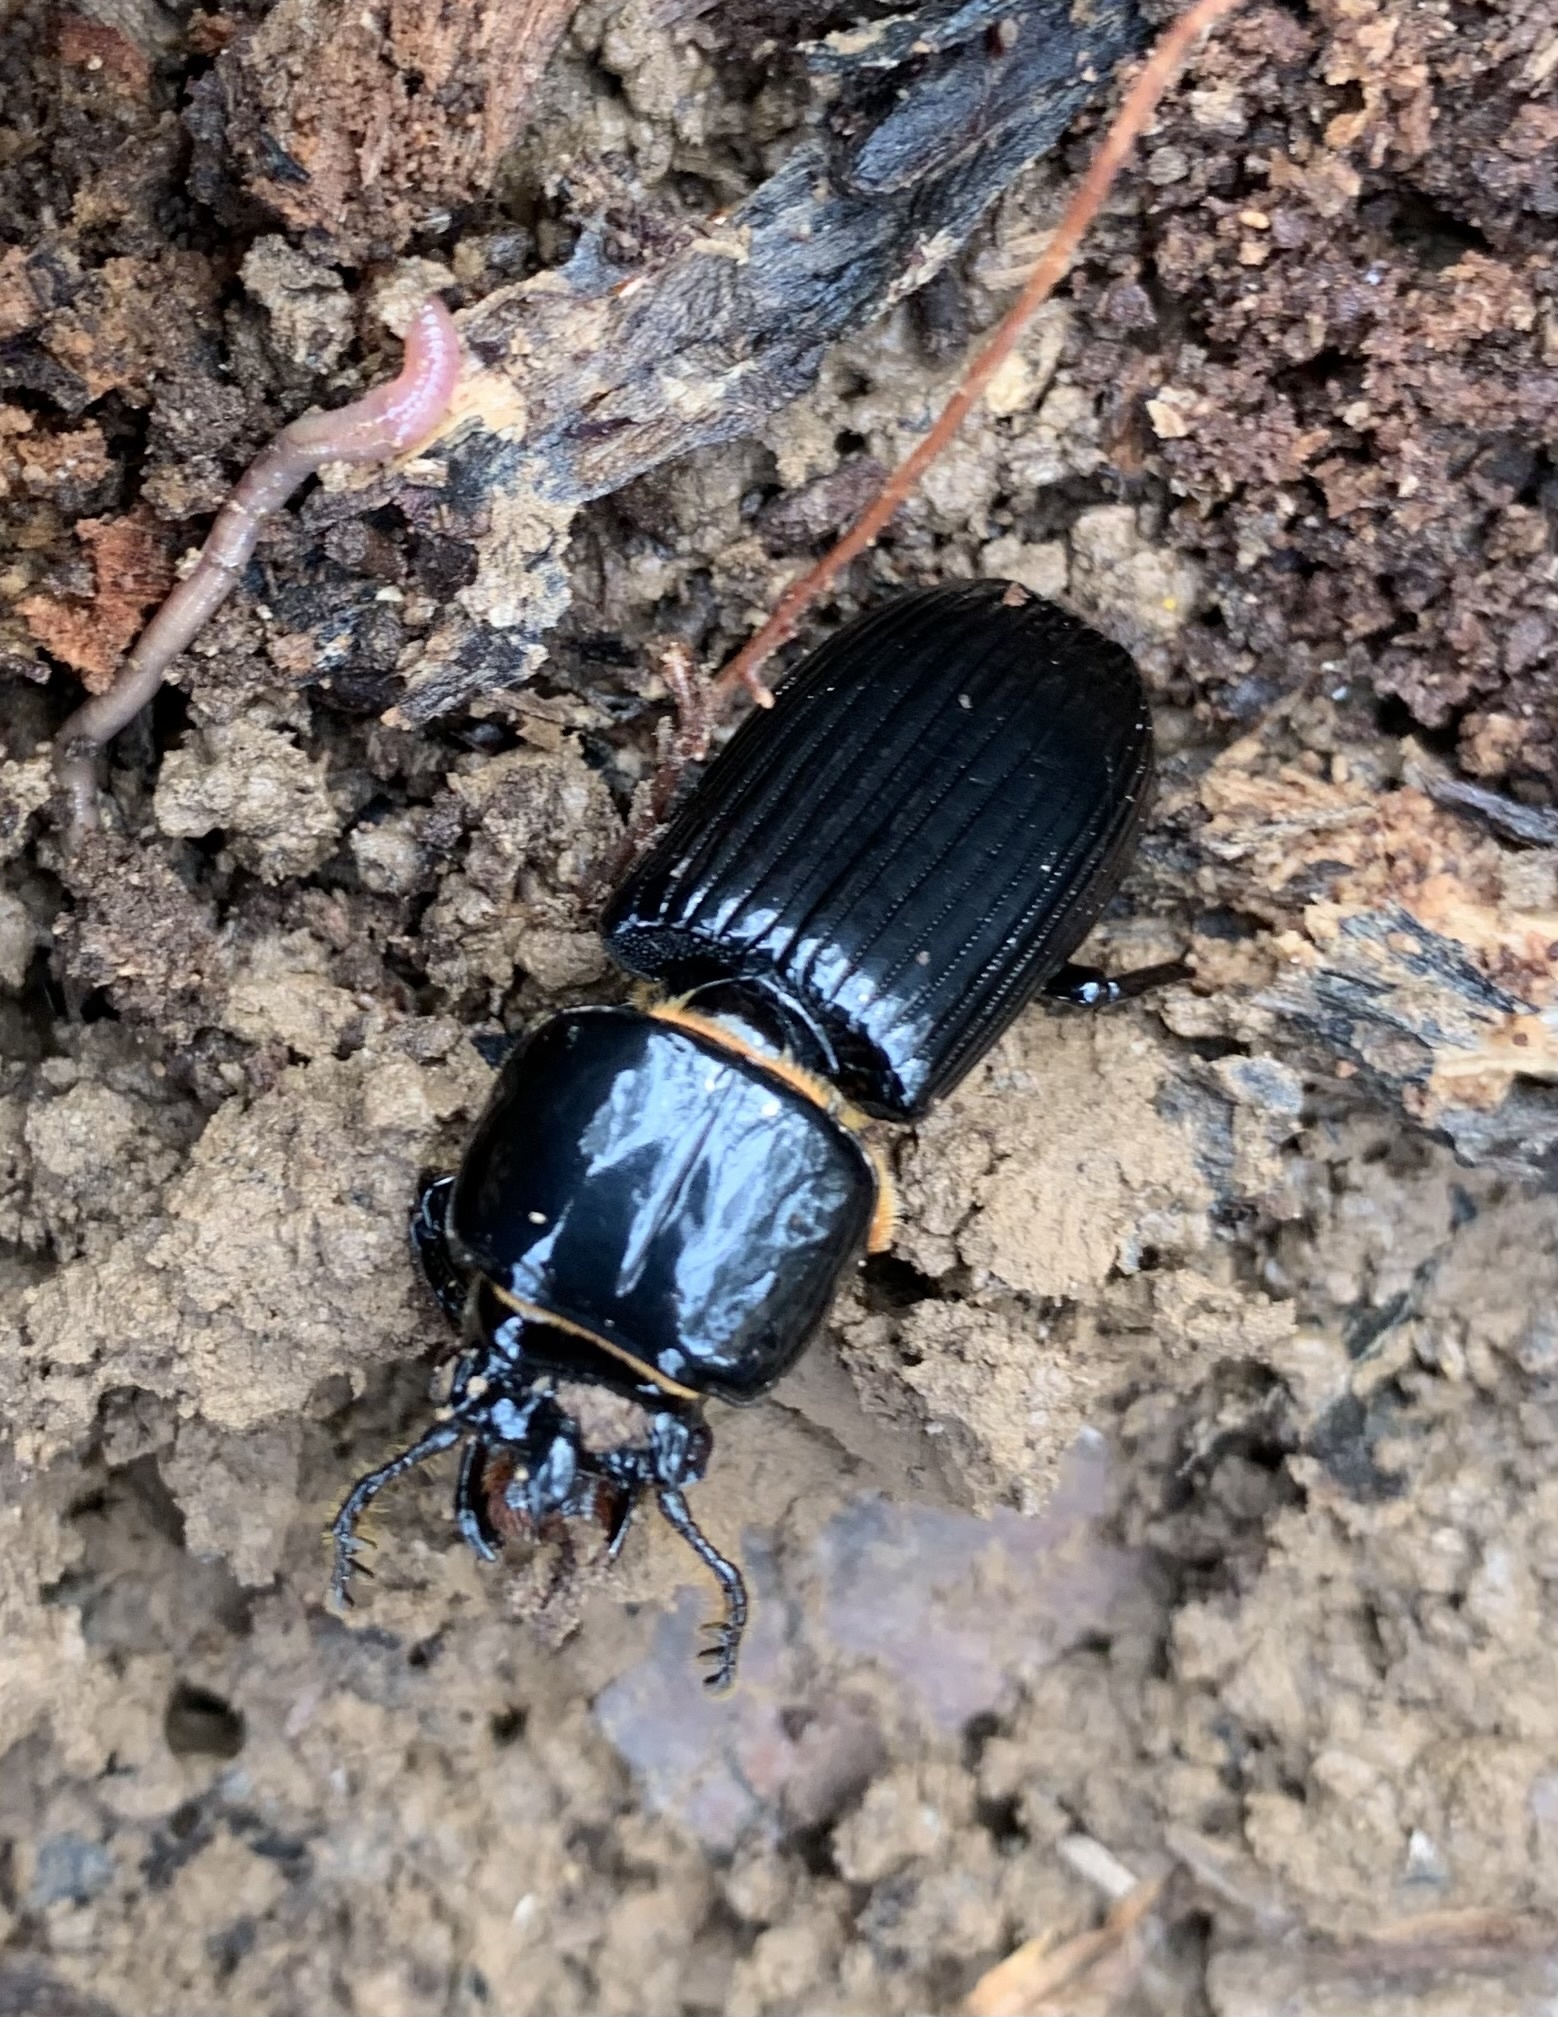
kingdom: Animalia
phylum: Arthropoda
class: Insecta
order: Coleoptera
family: Passalidae
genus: Odontotaenius
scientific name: Odontotaenius disjunctus
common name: Patent leather beetle
